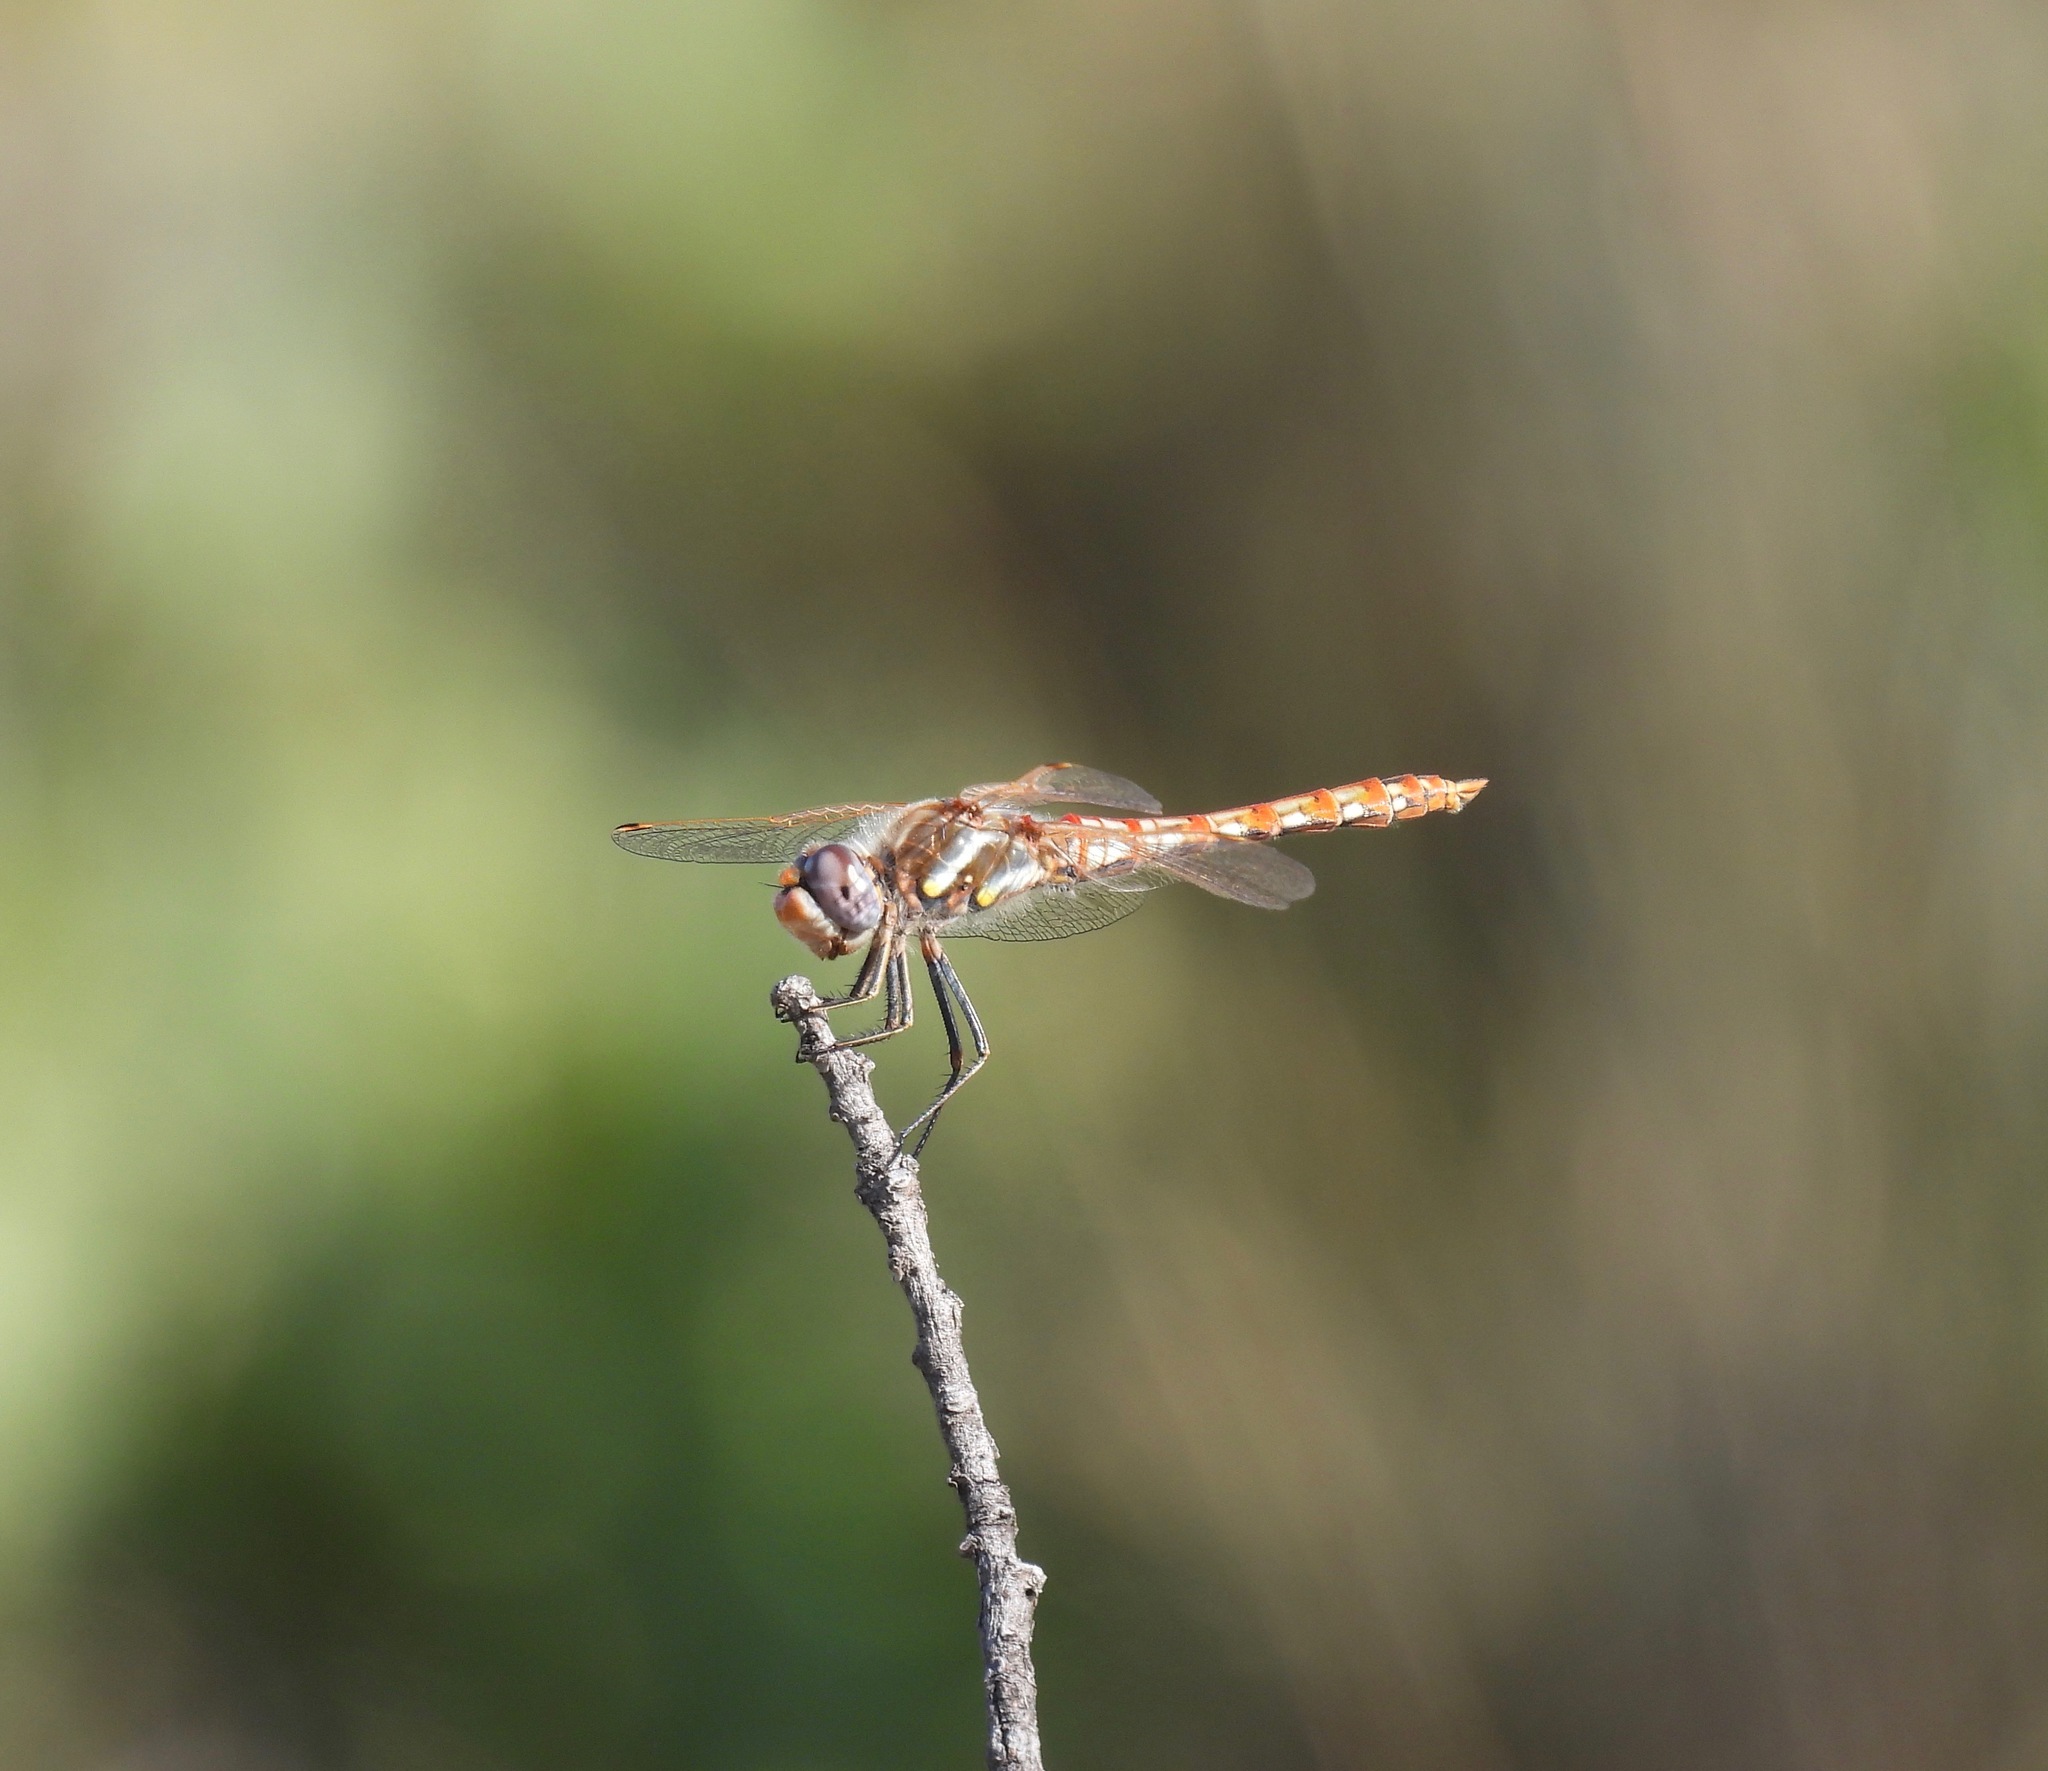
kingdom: Animalia
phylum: Arthropoda
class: Insecta
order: Odonata
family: Libellulidae
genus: Sympetrum
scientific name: Sympetrum corruptum
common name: Variegated meadowhawk
